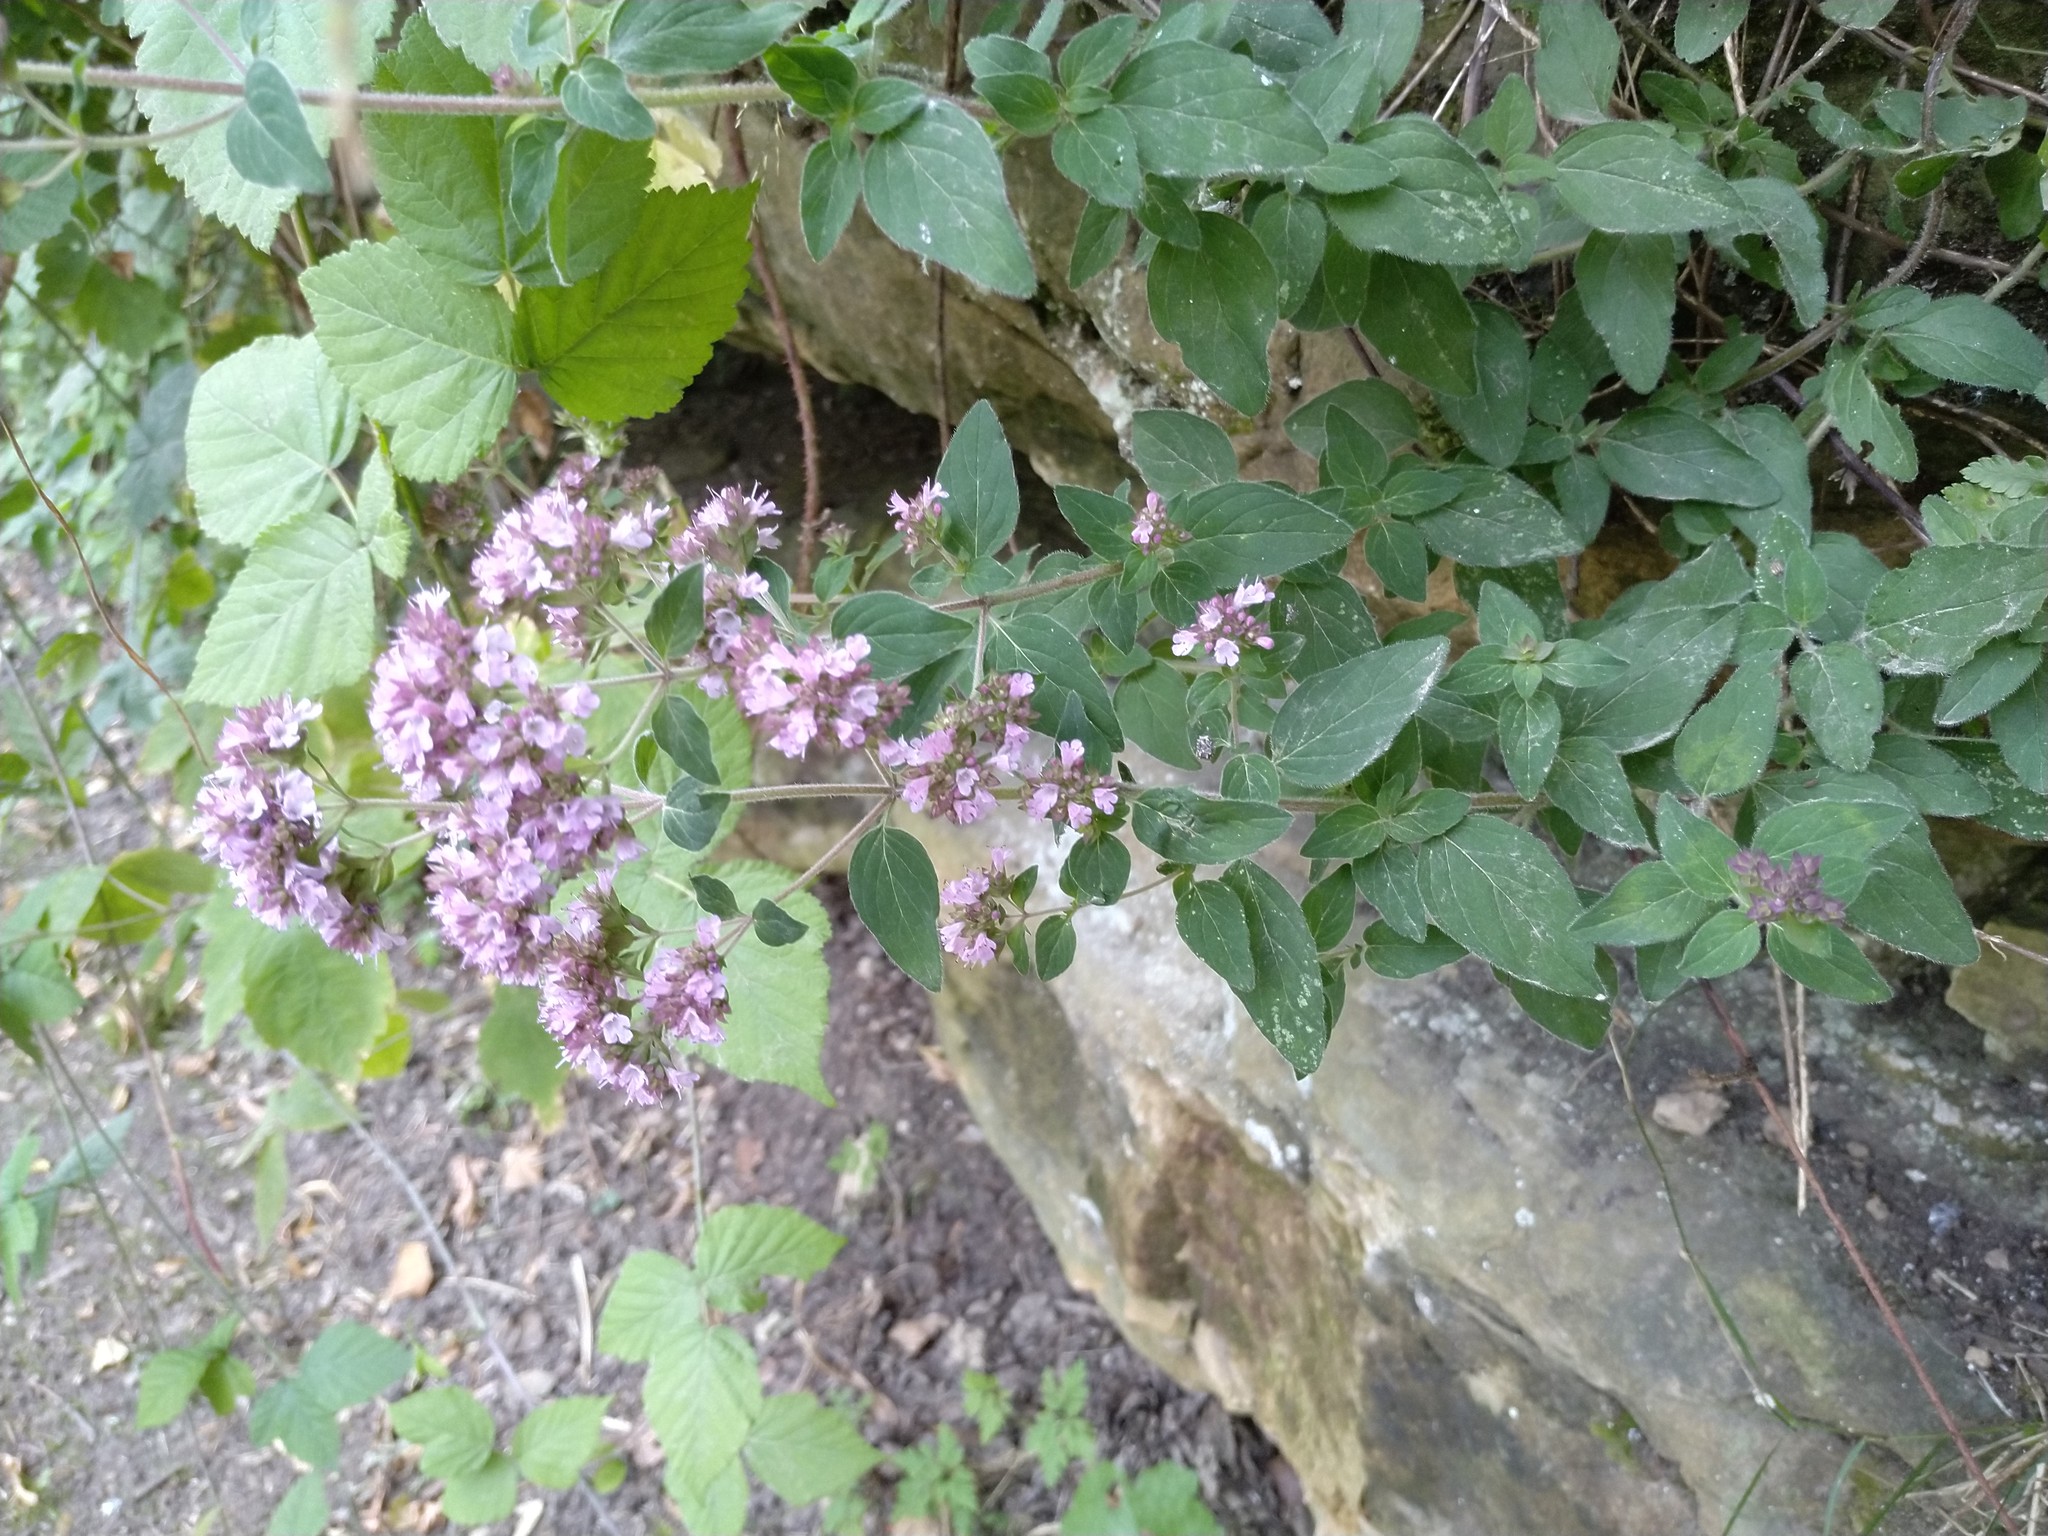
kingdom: Plantae
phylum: Tracheophyta
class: Magnoliopsida
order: Lamiales
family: Lamiaceae
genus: Origanum
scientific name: Origanum vulgare
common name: Wild marjoram
